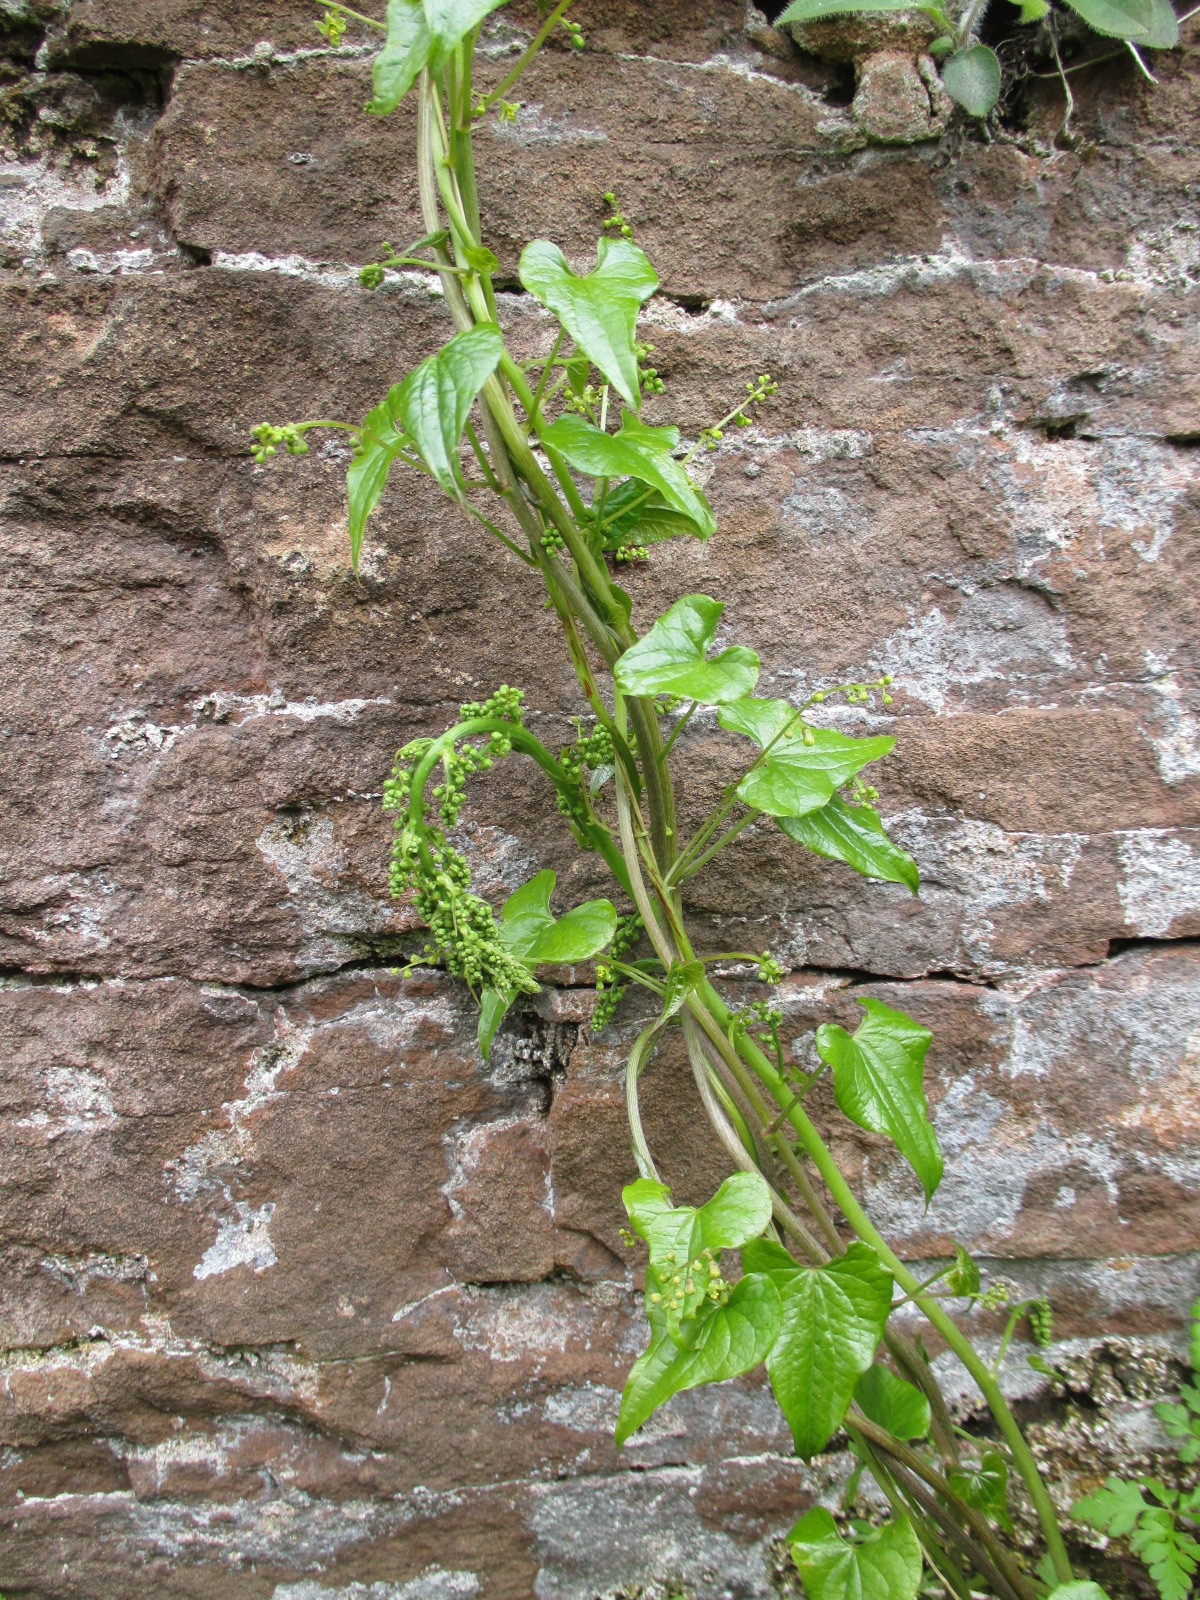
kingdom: Plantae
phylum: Tracheophyta
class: Liliopsida
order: Dioscoreales
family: Dioscoreaceae
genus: Dioscorea
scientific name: Dioscorea communis
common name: Black-bindweed
